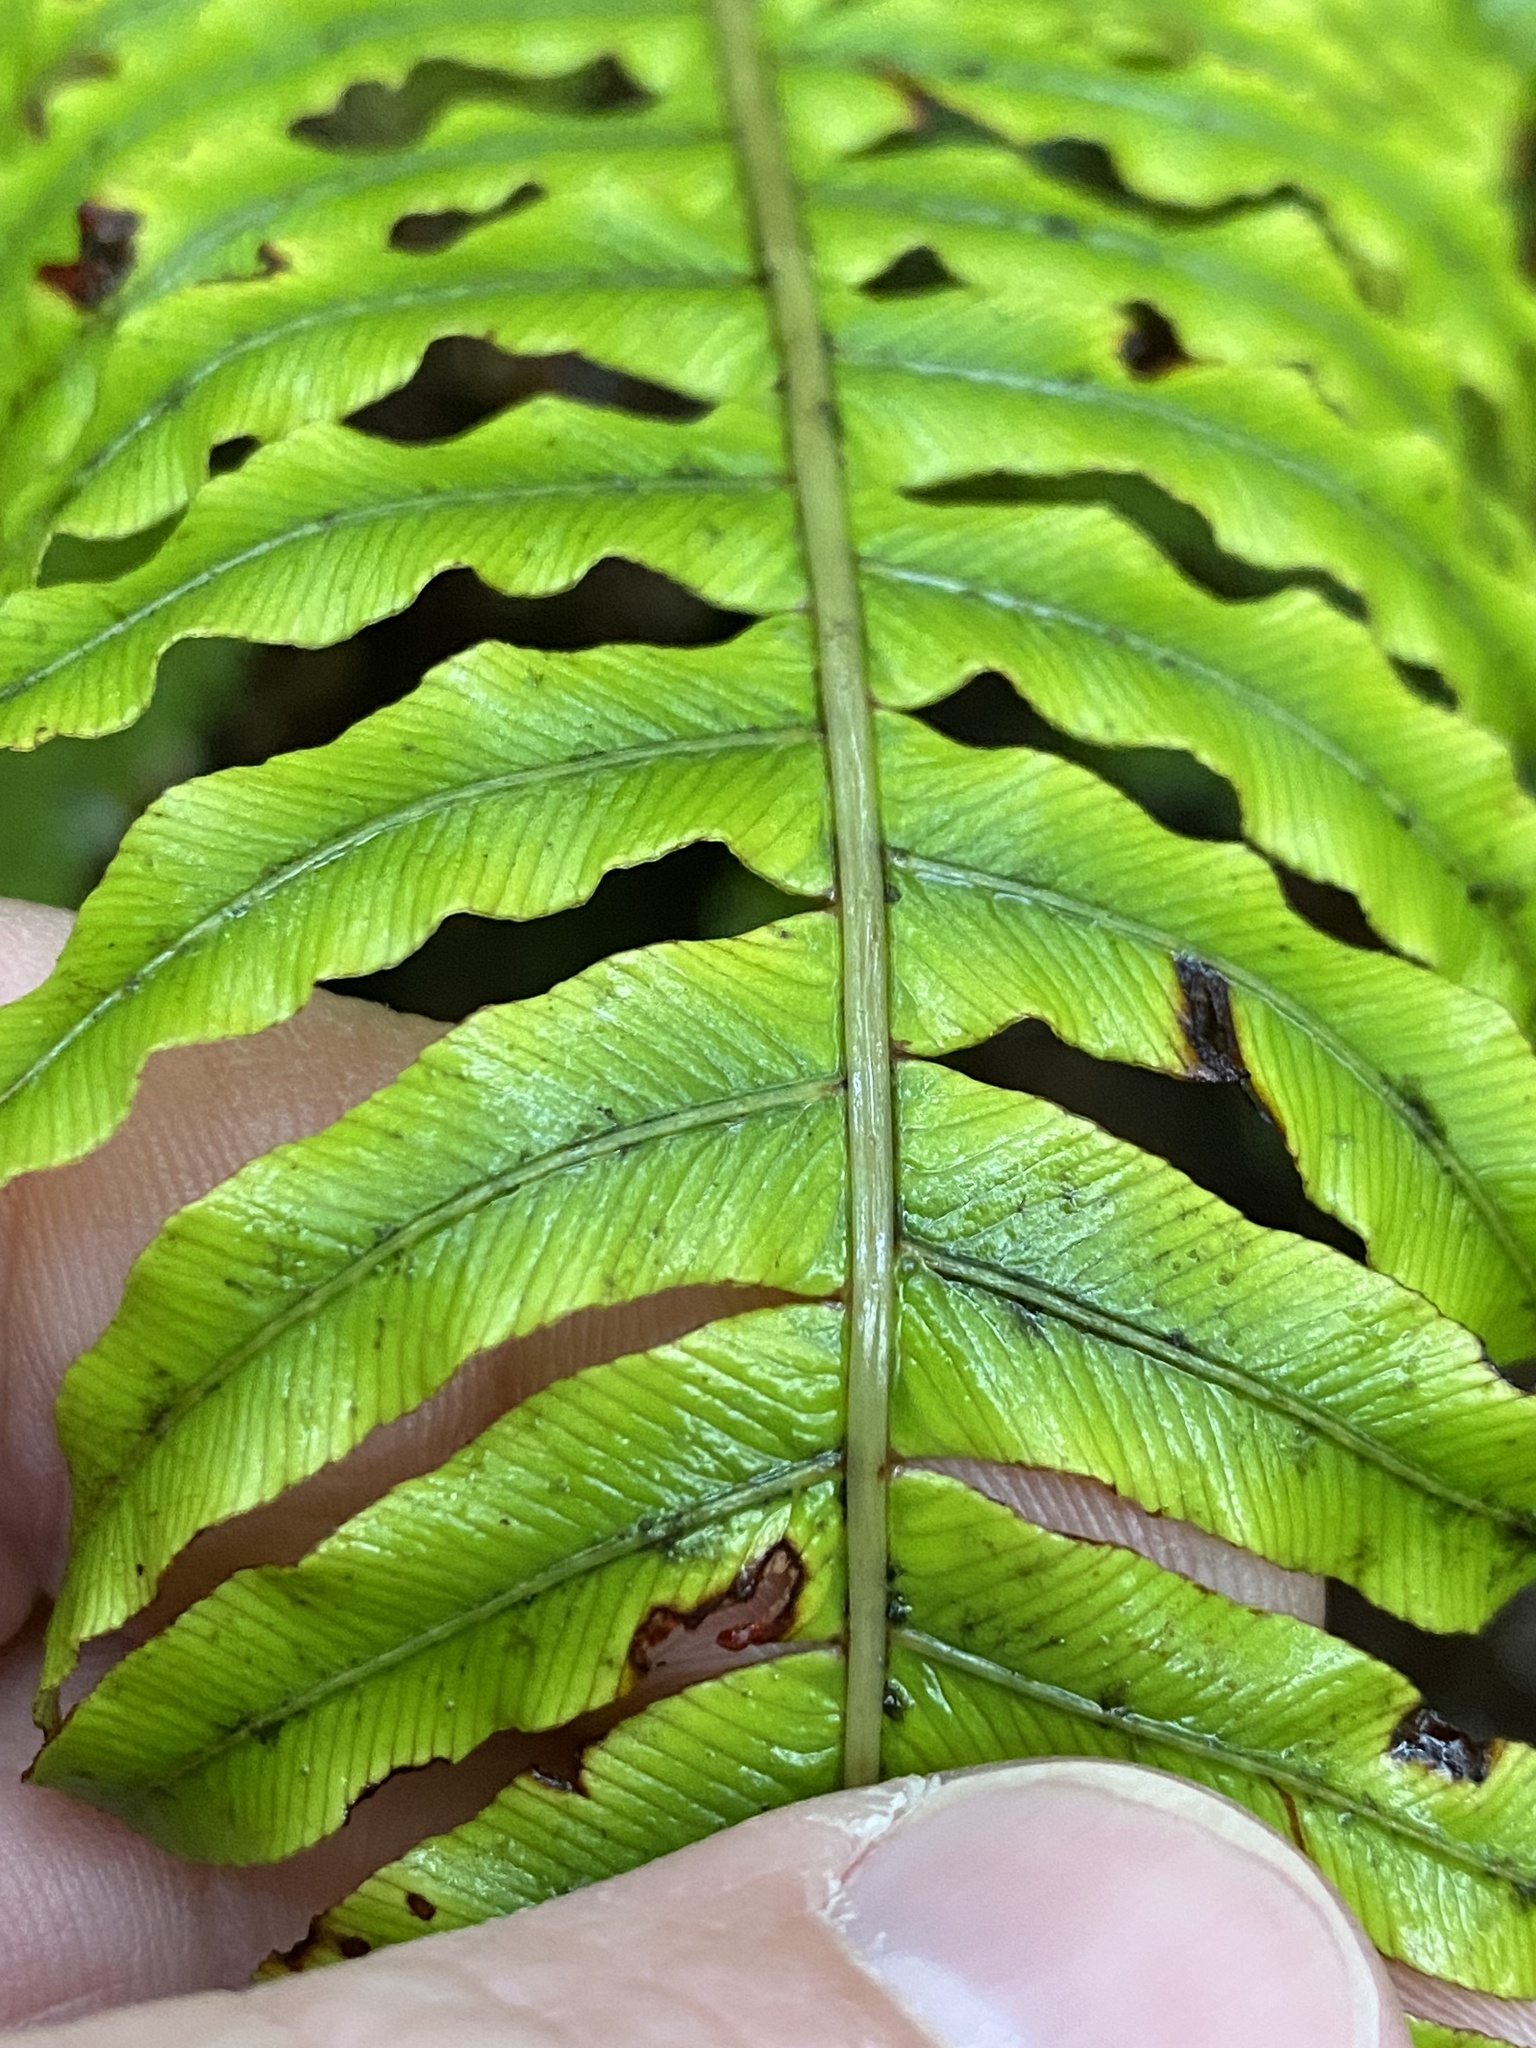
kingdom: Plantae
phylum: Tracheophyta
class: Polypodiopsida
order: Polypodiales
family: Blechnaceae
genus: Lomaria
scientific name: Lomaria discolor
